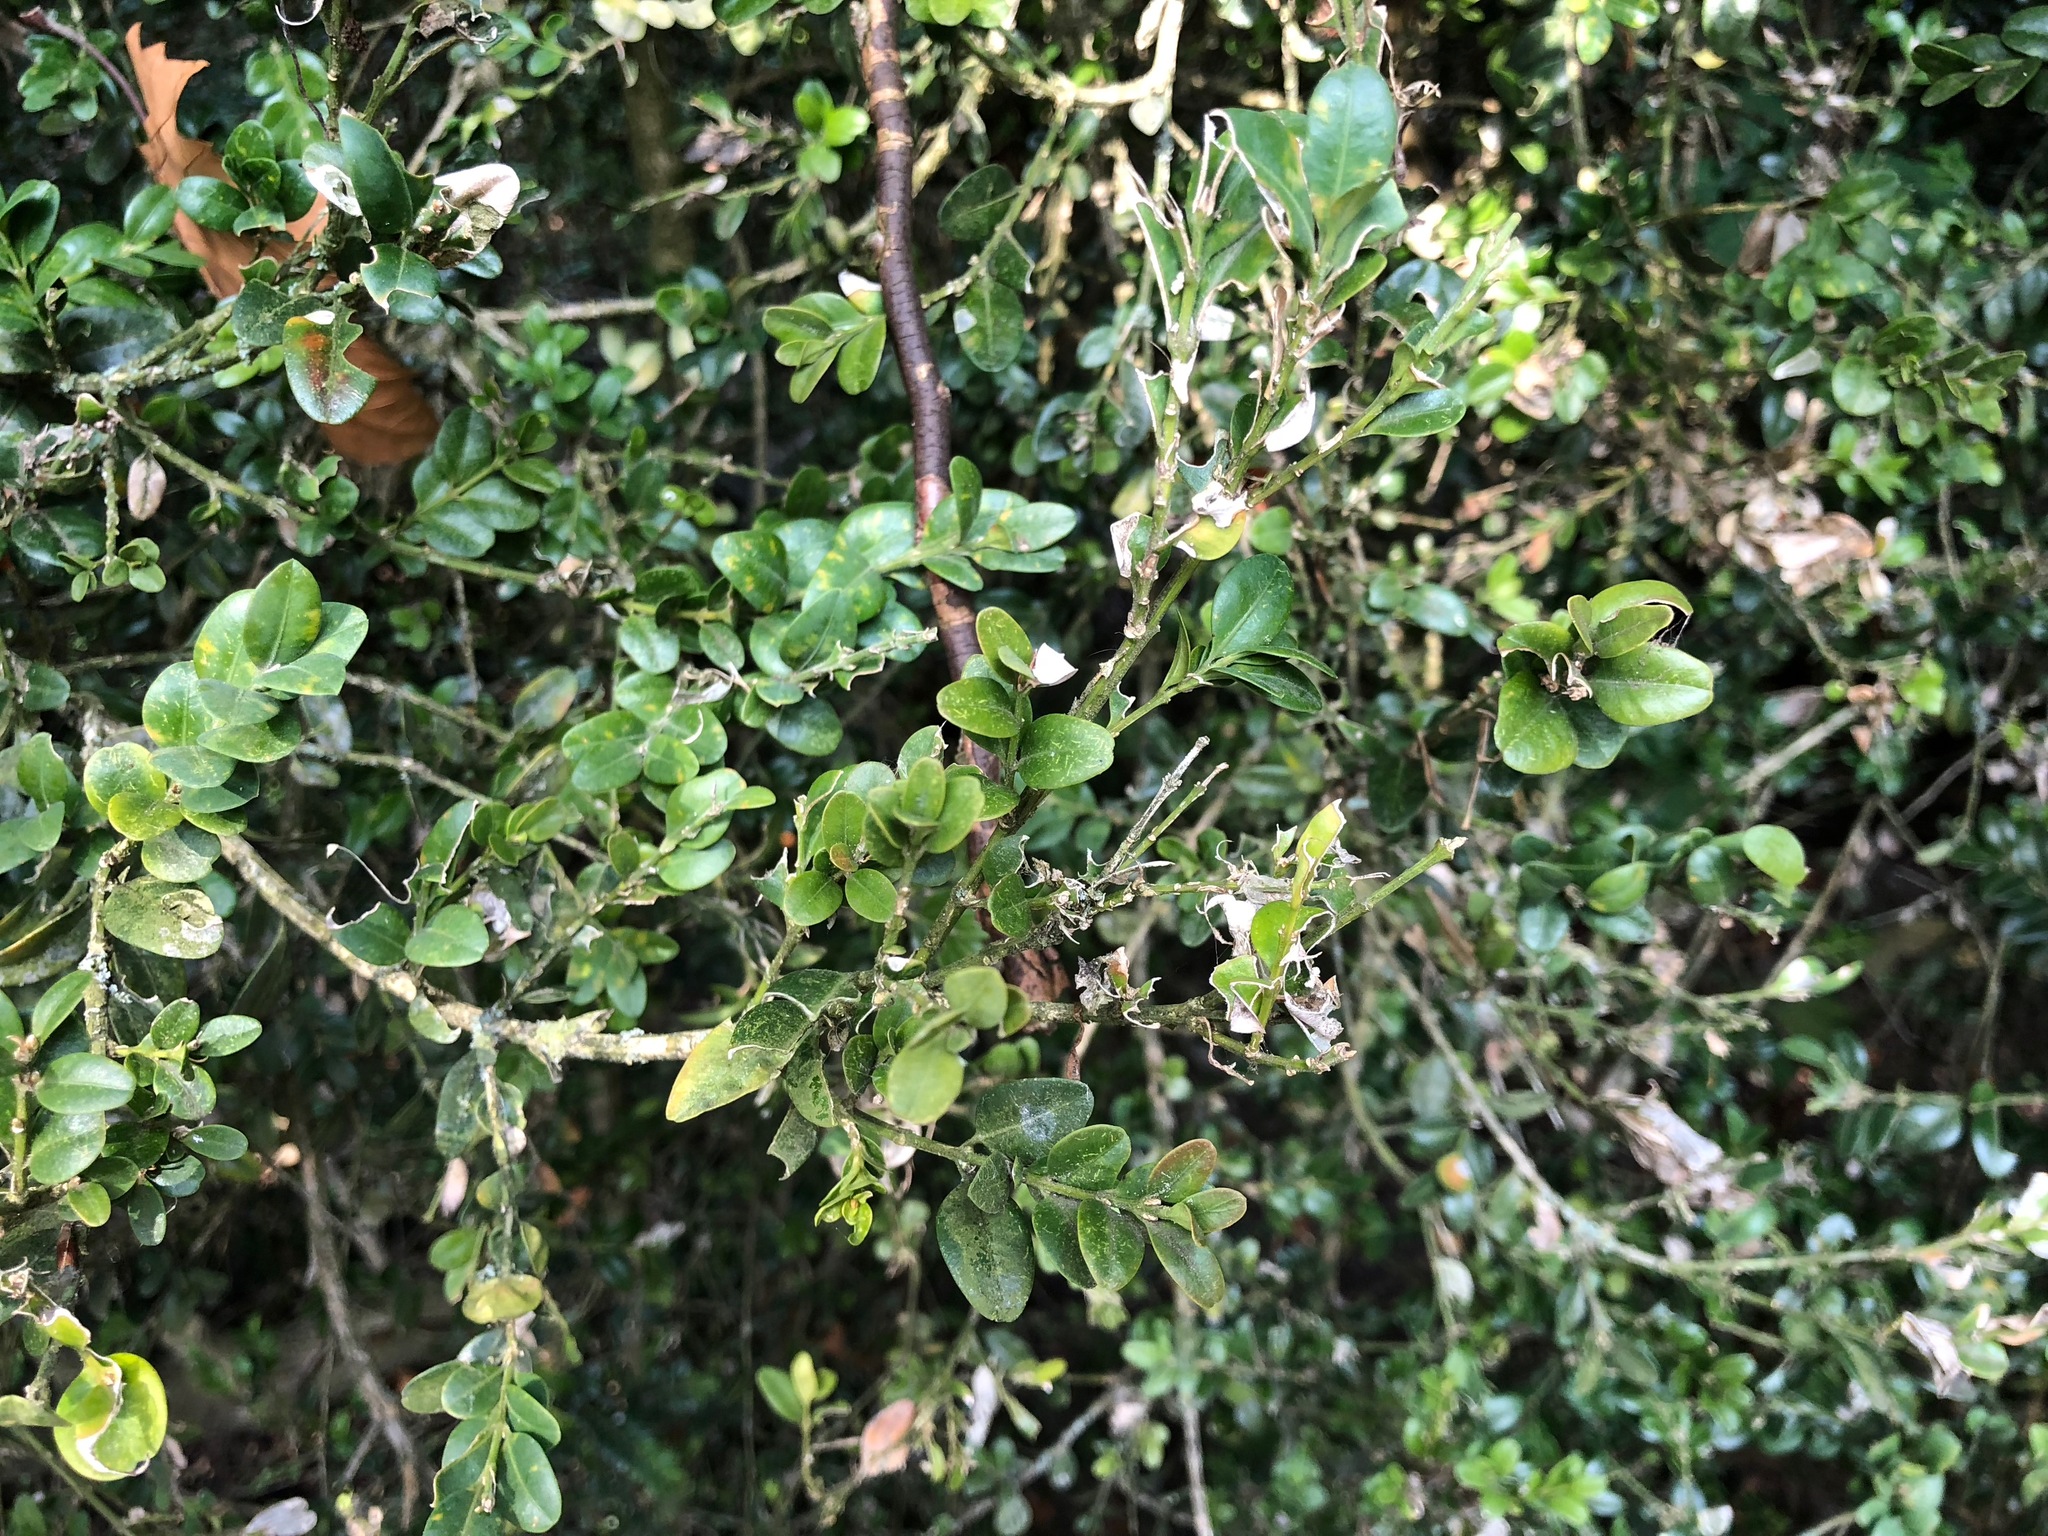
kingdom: Animalia
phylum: Arthropoda
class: Insecta
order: Lepidoptera
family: Crambidae
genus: Cydalima
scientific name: Cydalima perspectalis
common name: Box tree moth
